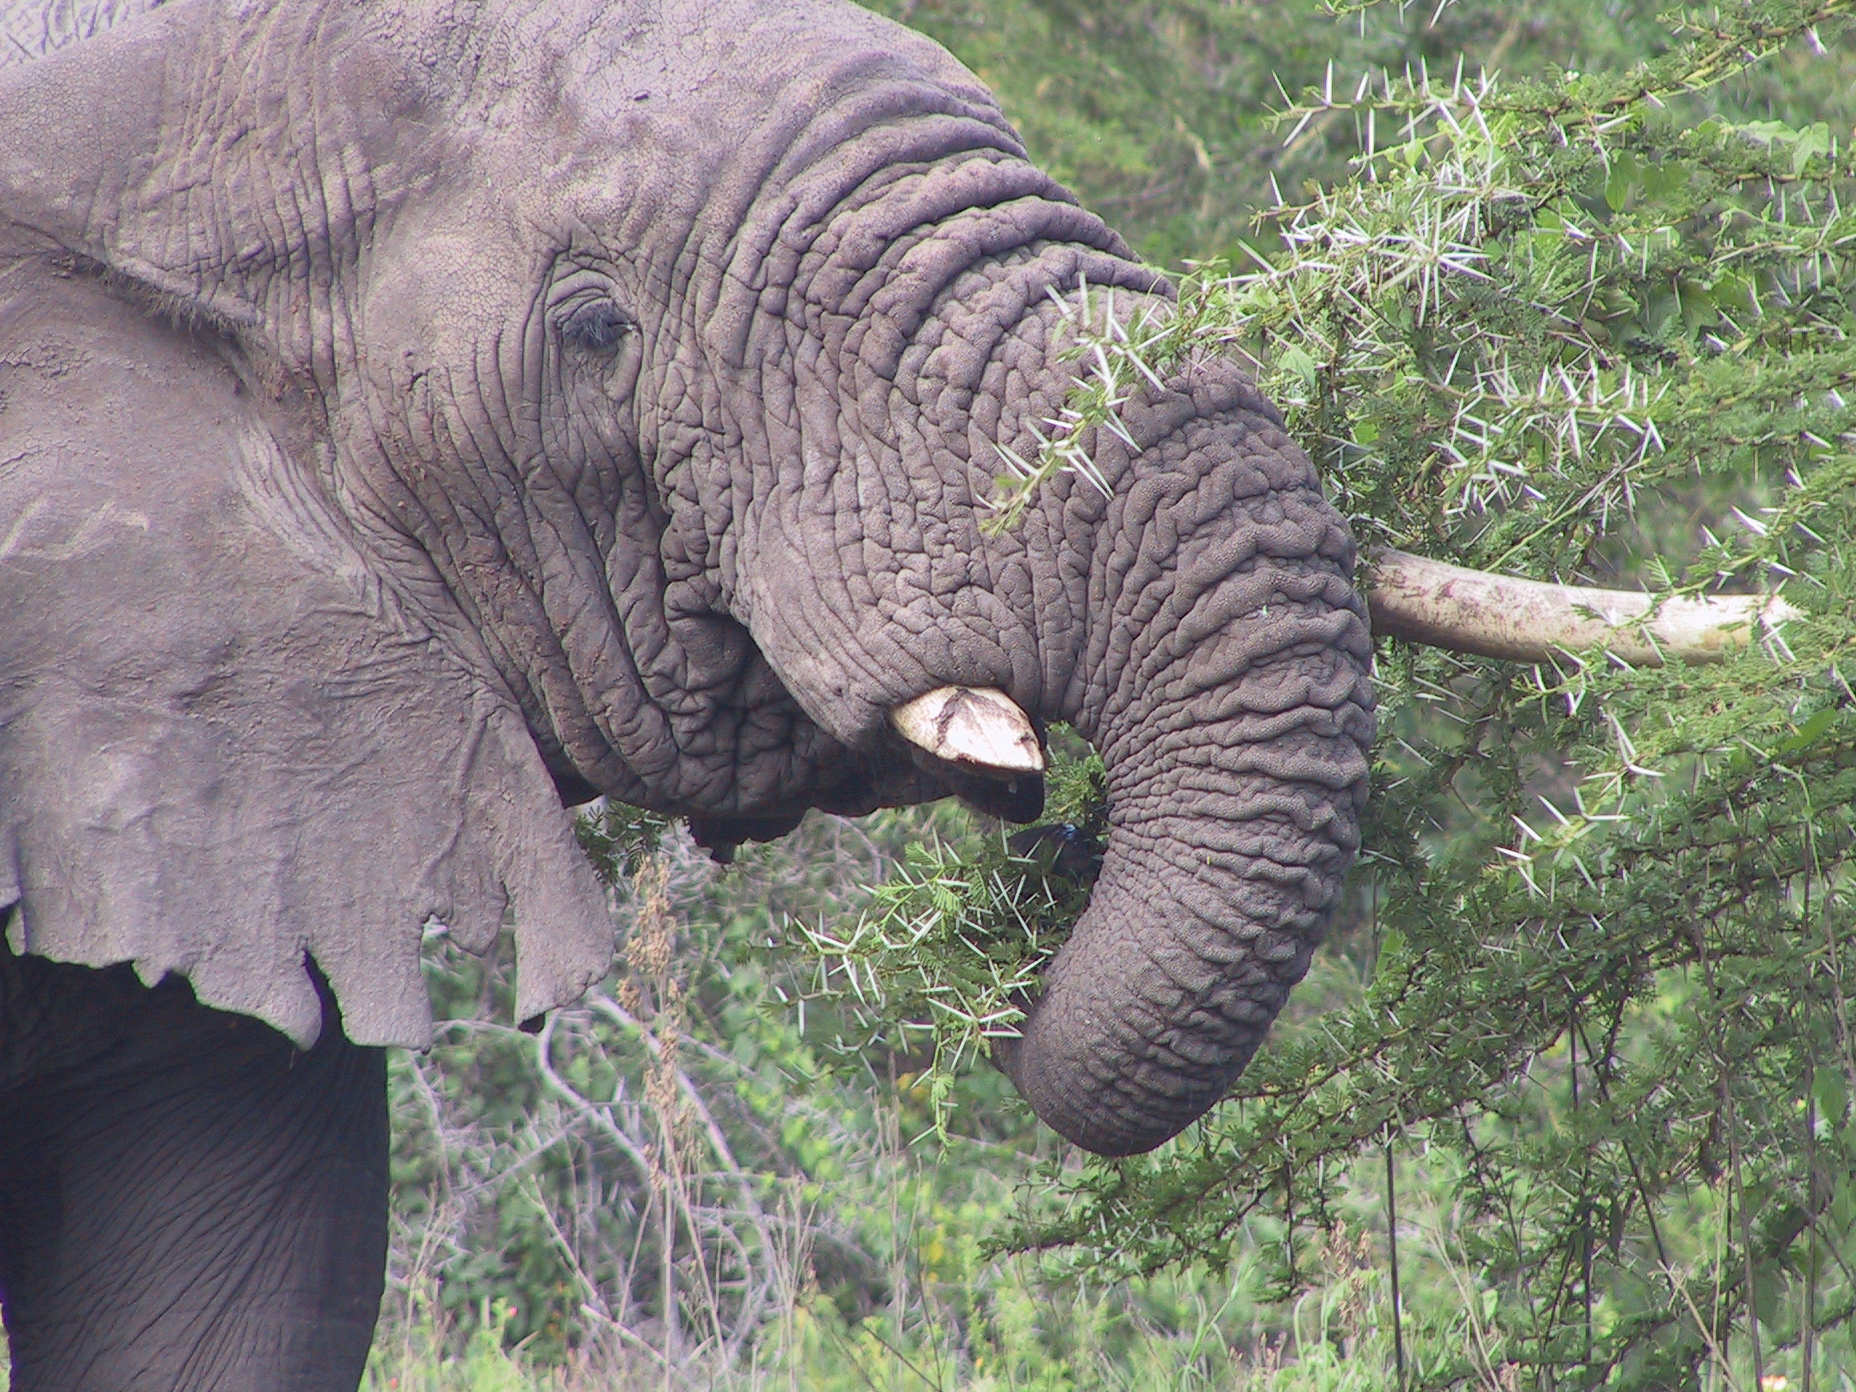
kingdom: Animalia
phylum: Chordata
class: Mammalia
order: Proboscidea
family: Elephantidae
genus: Loxodonta
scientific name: Loxodonta africana
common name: African elephant
